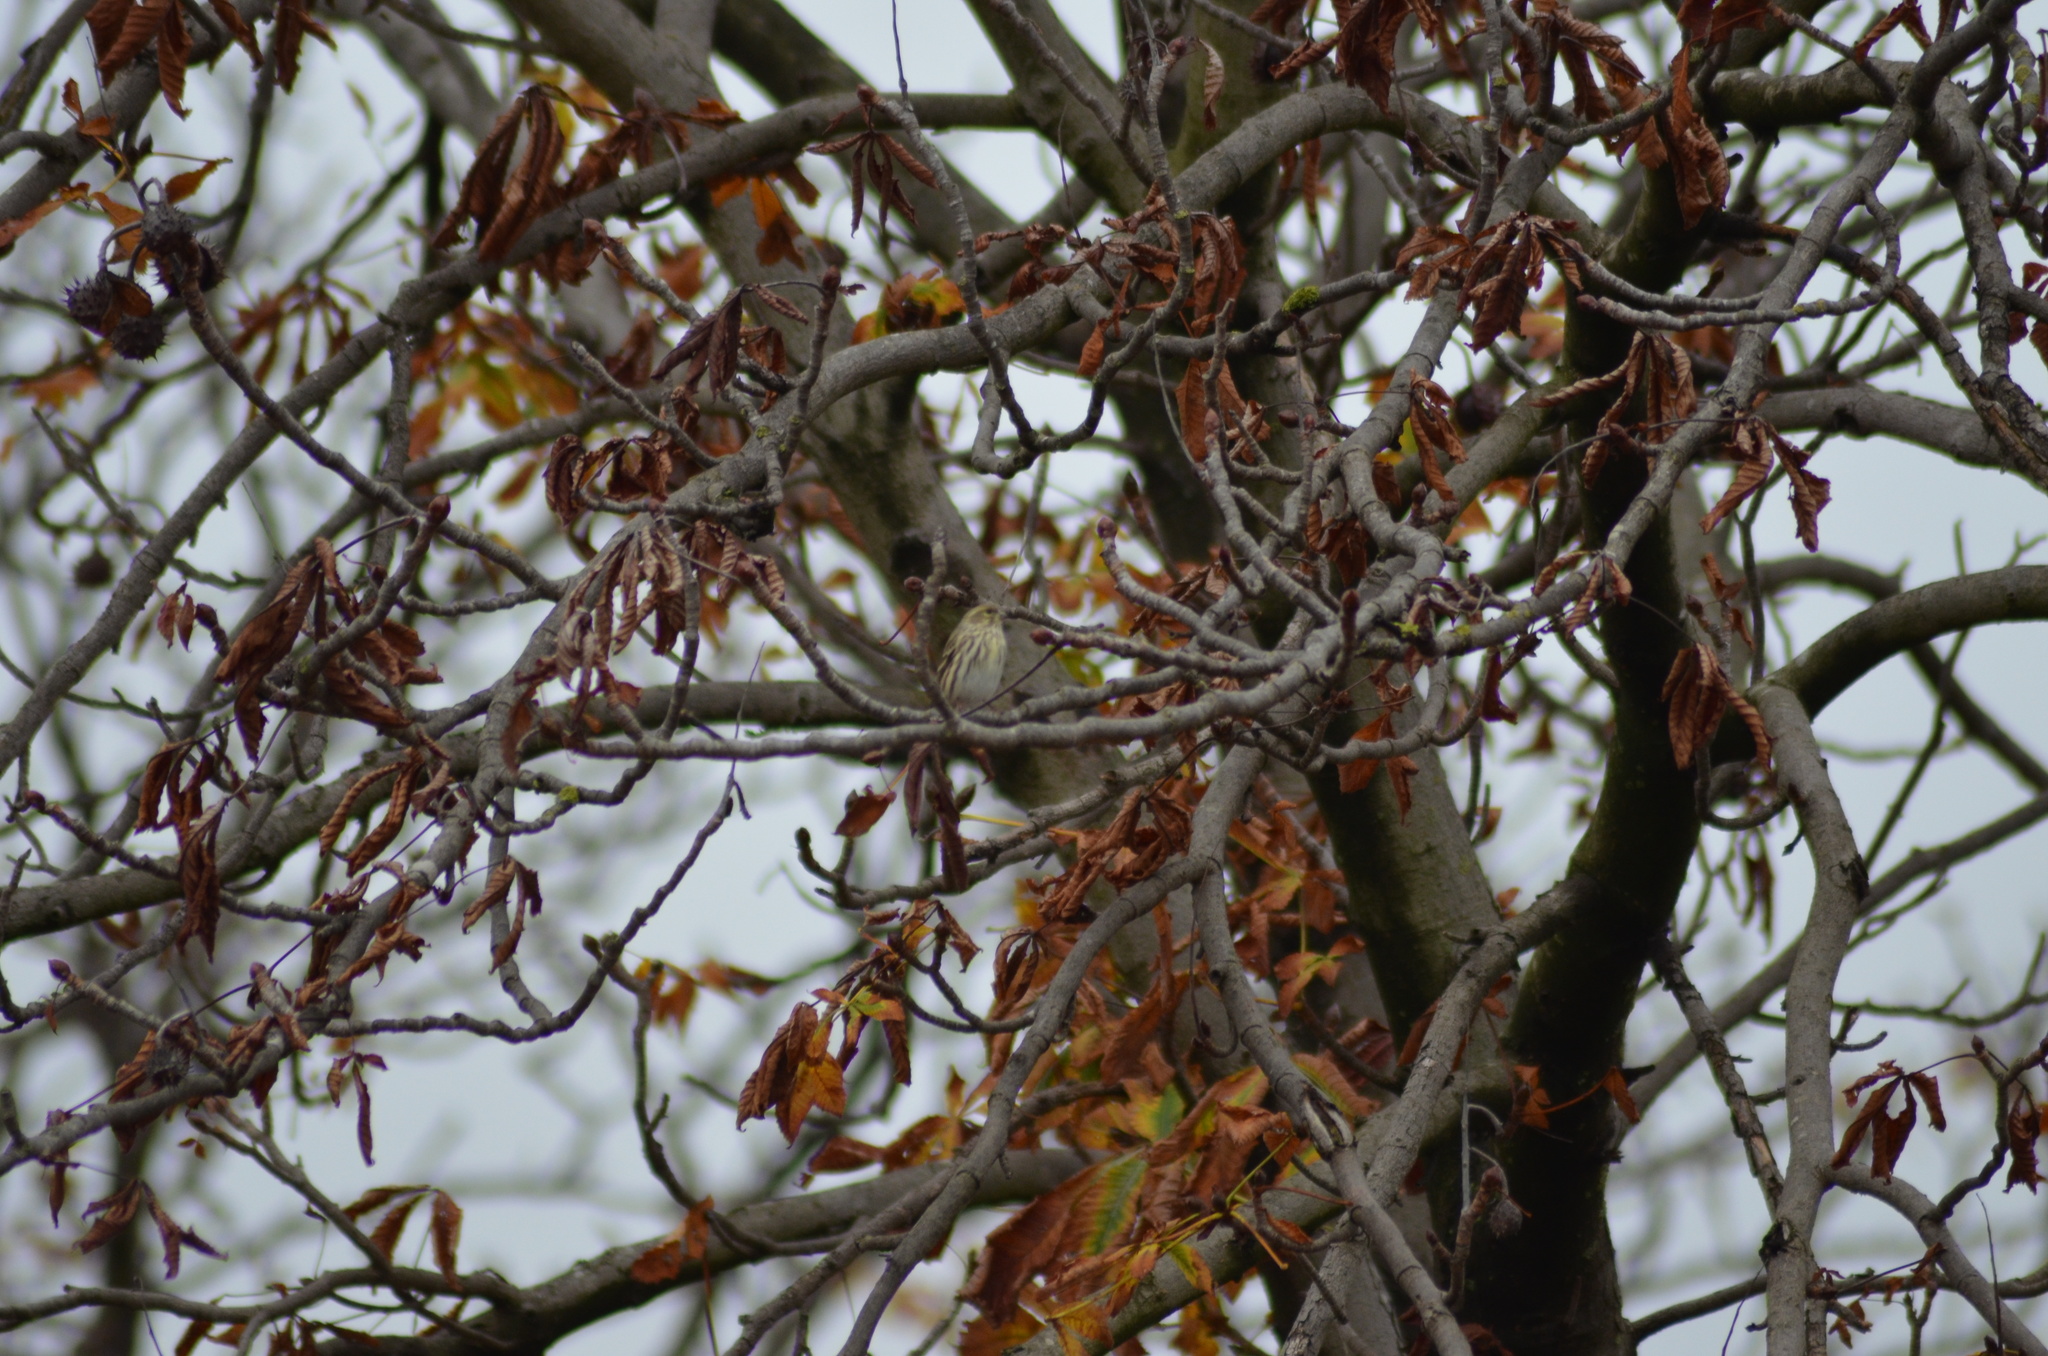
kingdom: Animalia
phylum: Chordata
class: Aves
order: Passeriformes
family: Fringillidae
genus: Serinus
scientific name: Serinus serinus
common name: European serin
